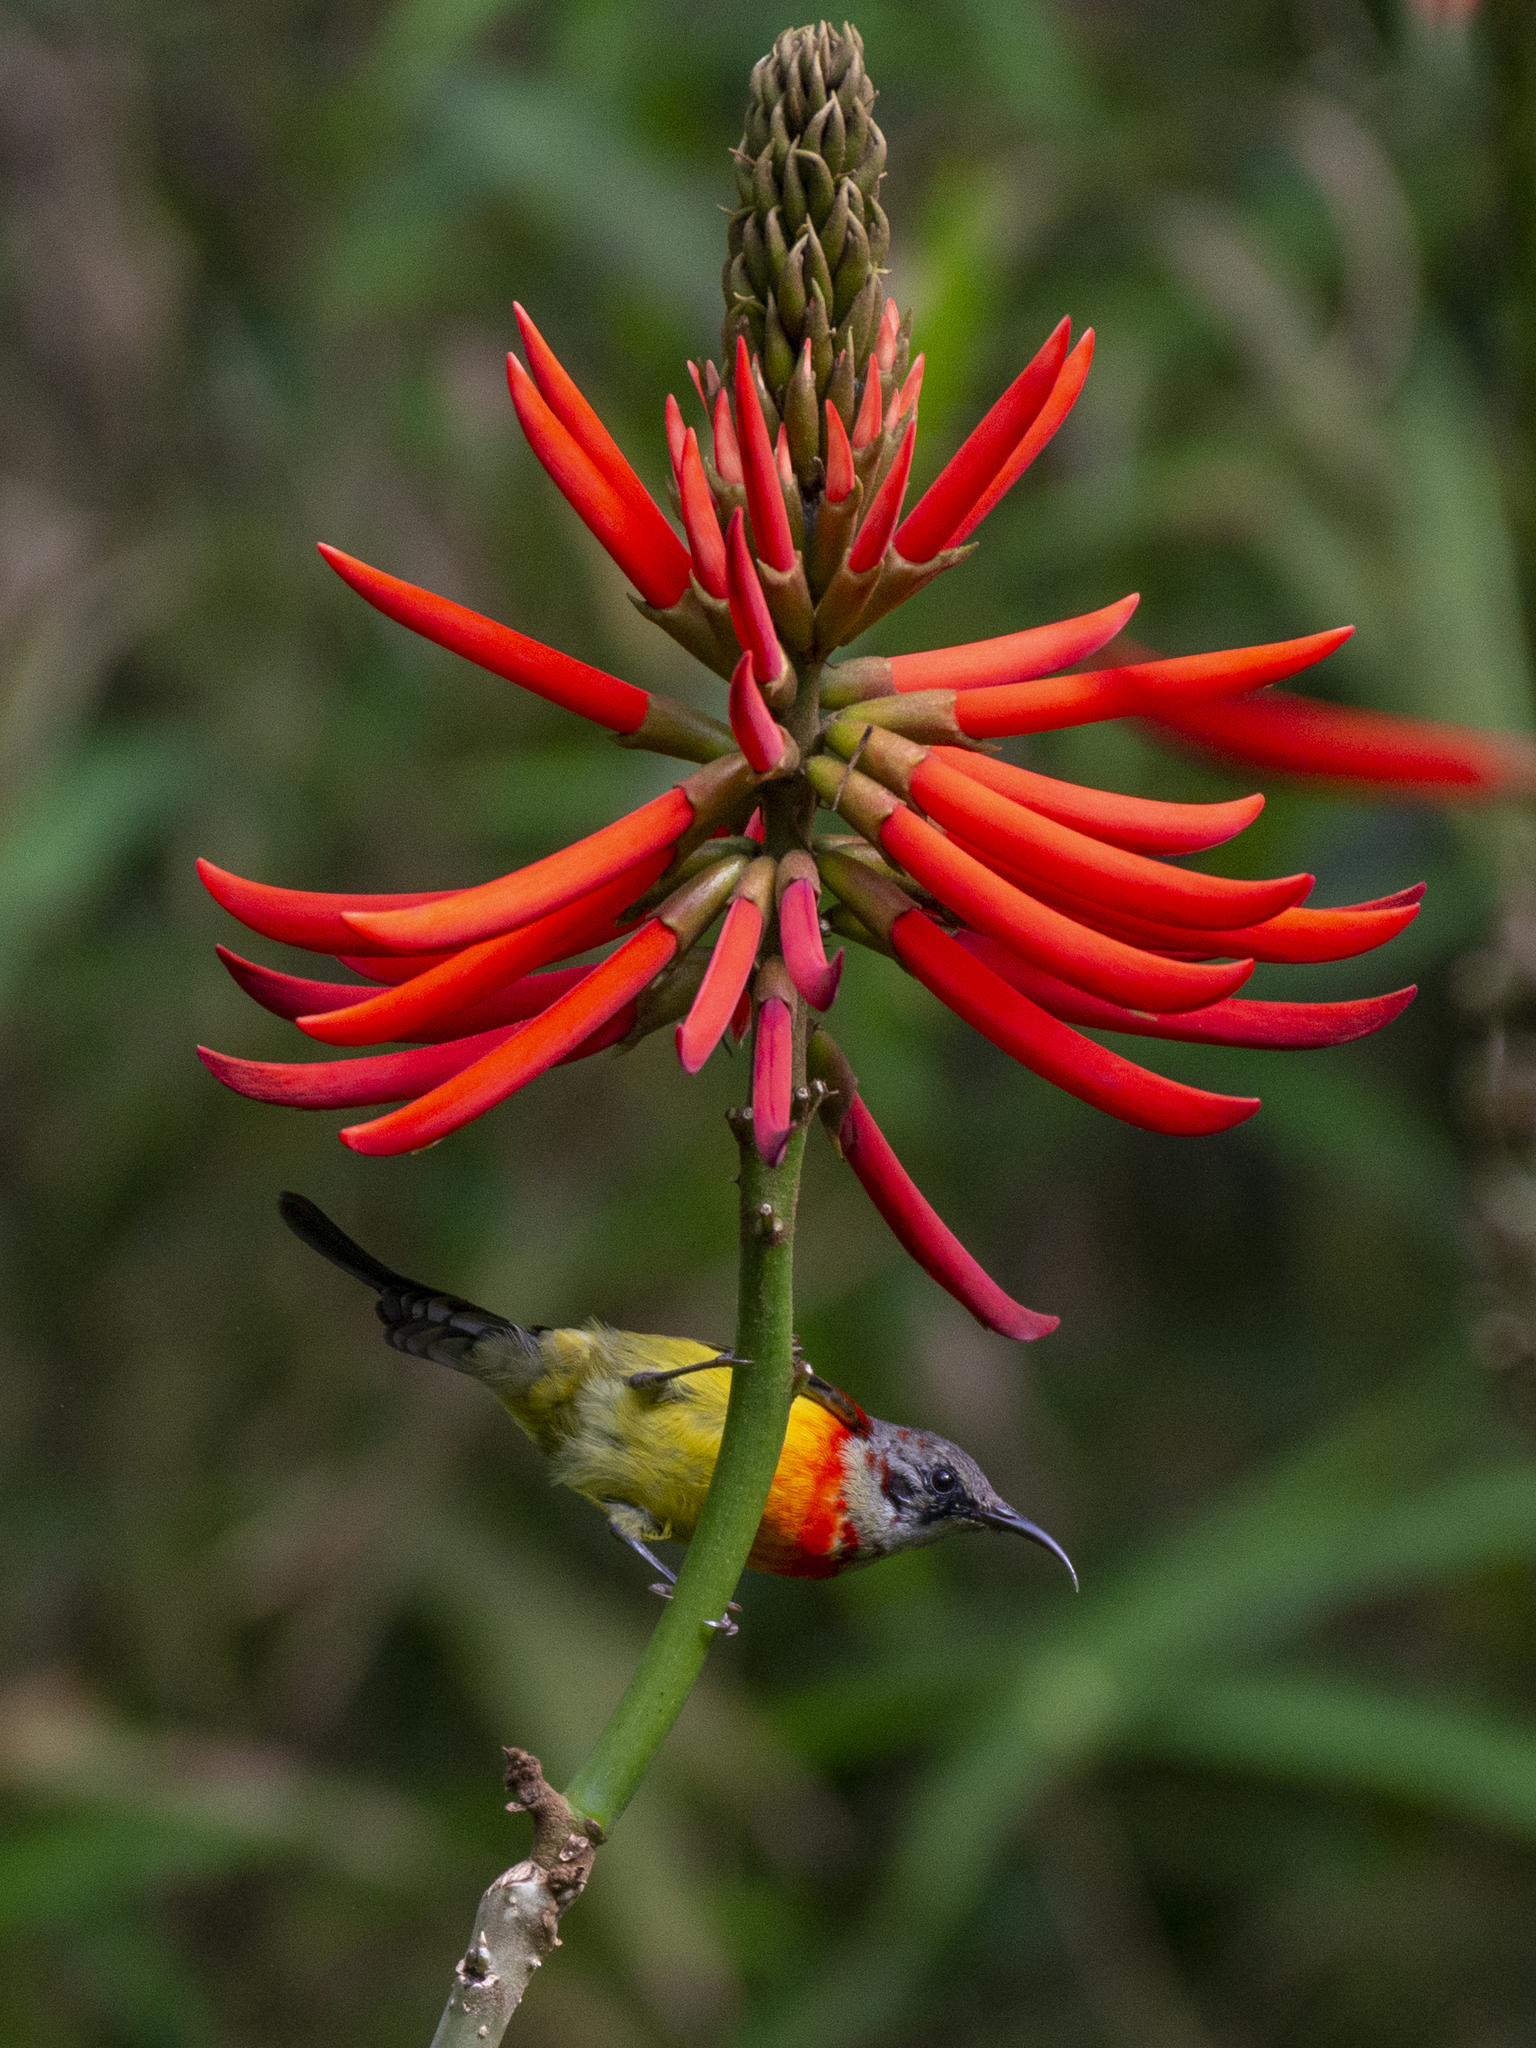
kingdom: Animalia
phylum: Chordata
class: Aves
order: Passeriformes
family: Nectariniidae
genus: Aethopyga
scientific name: Aethopyga gouldiae
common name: Mrs. gould's sunbird
